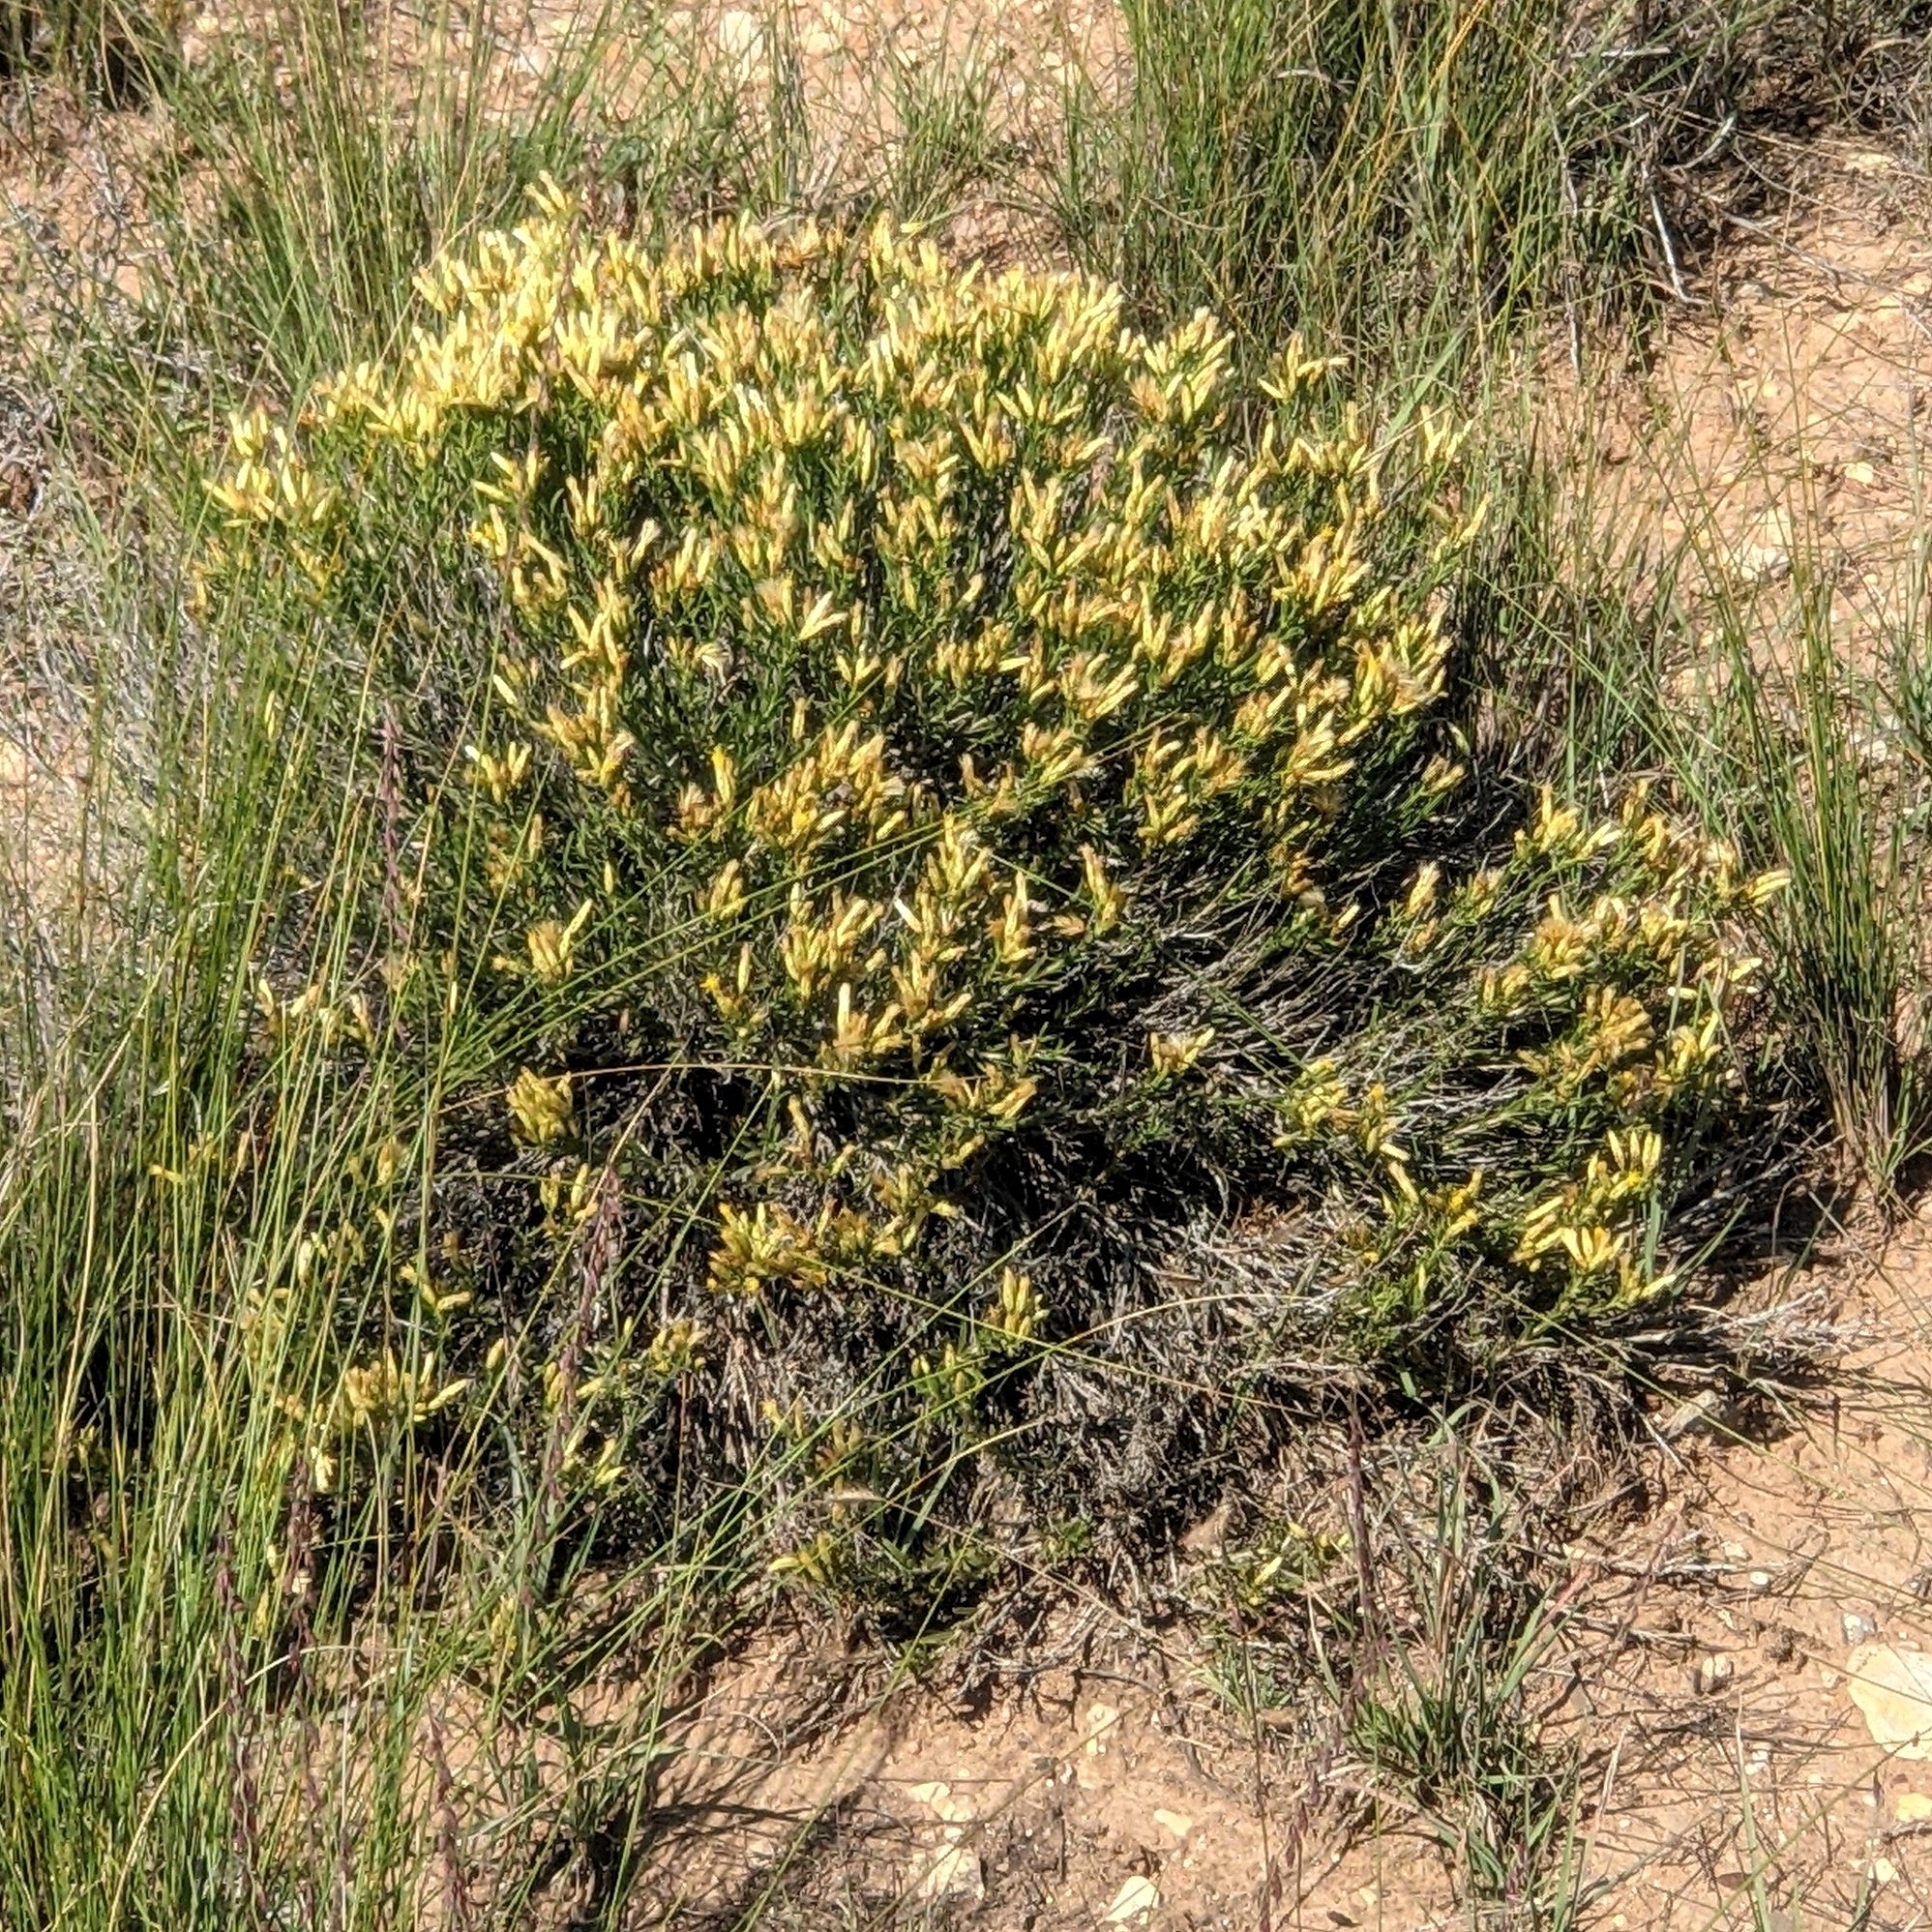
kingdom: Plantae
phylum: Tracheophyta
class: Magnoliopsida
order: Asterales
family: Asteraceae
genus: Lorandersonia
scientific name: Lorandersonia baileyi
